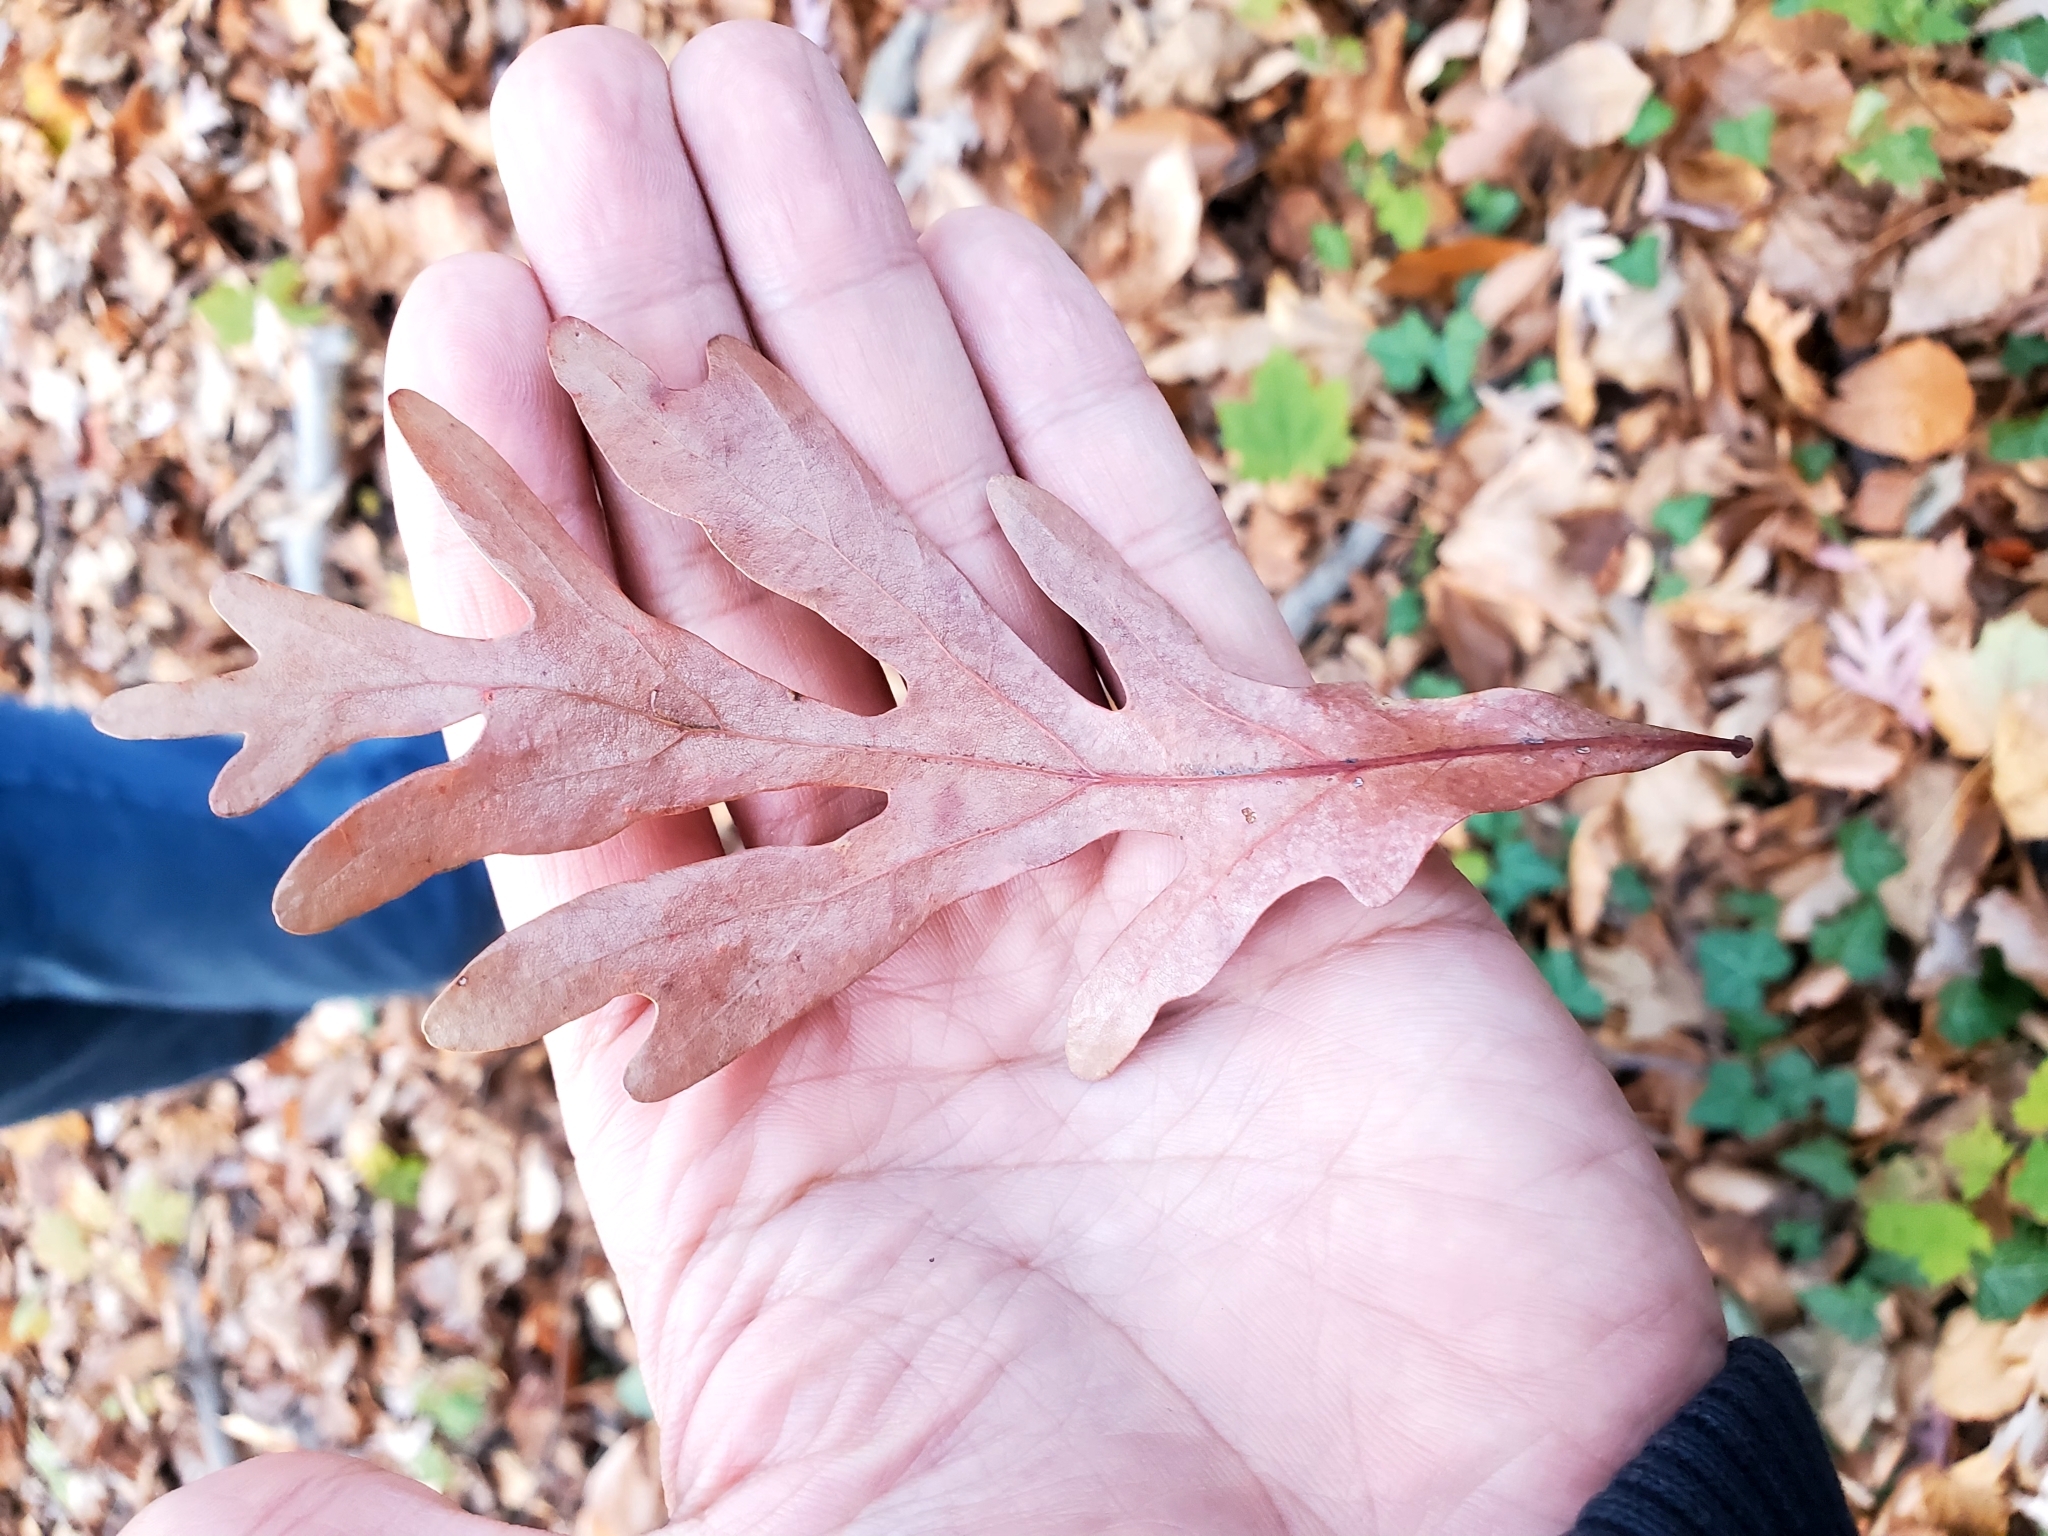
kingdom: Plantae
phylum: Tracheophyta
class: Magnoliopsida
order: Fagales
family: Fagaceae
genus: Quercus
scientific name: Quercus alba
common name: White oak
